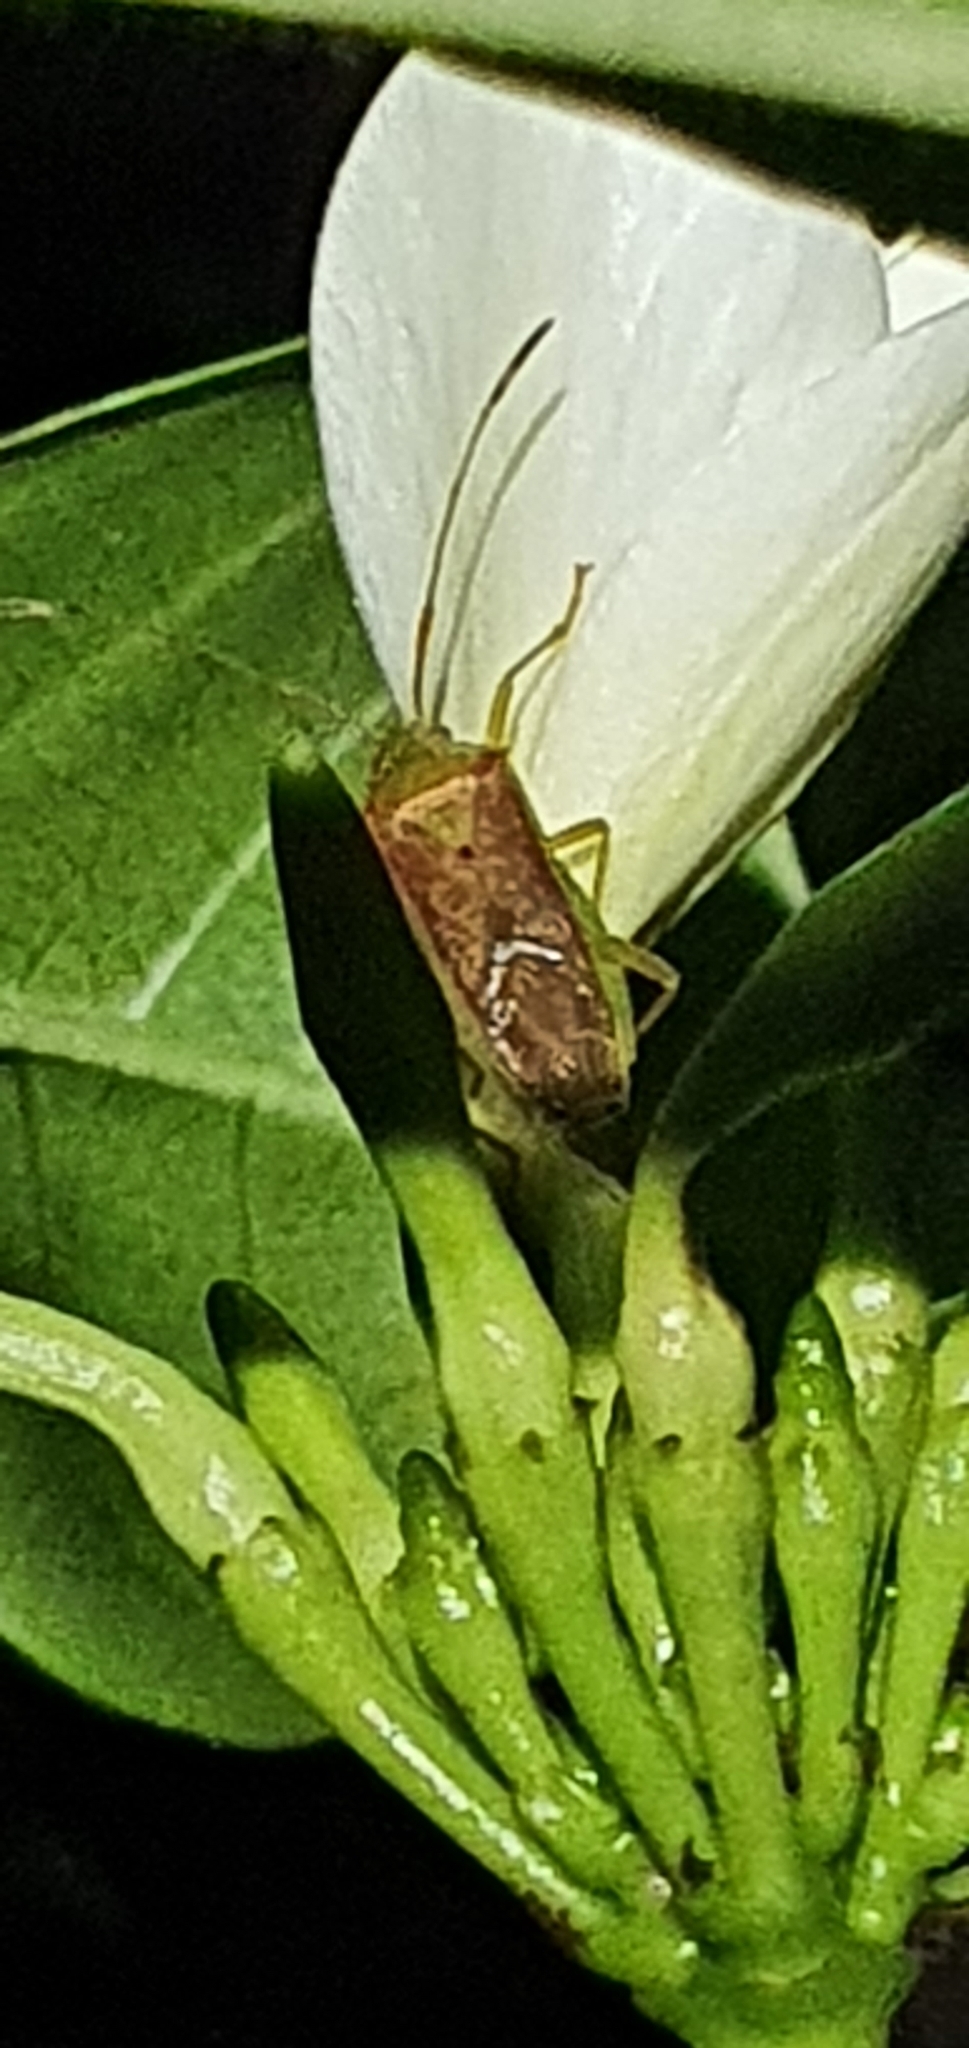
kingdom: Animalia
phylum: Arthropoda
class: Insecta
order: Hemiptera
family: Coreidae
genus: Amblypelta
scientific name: Amblypelta lutescens
